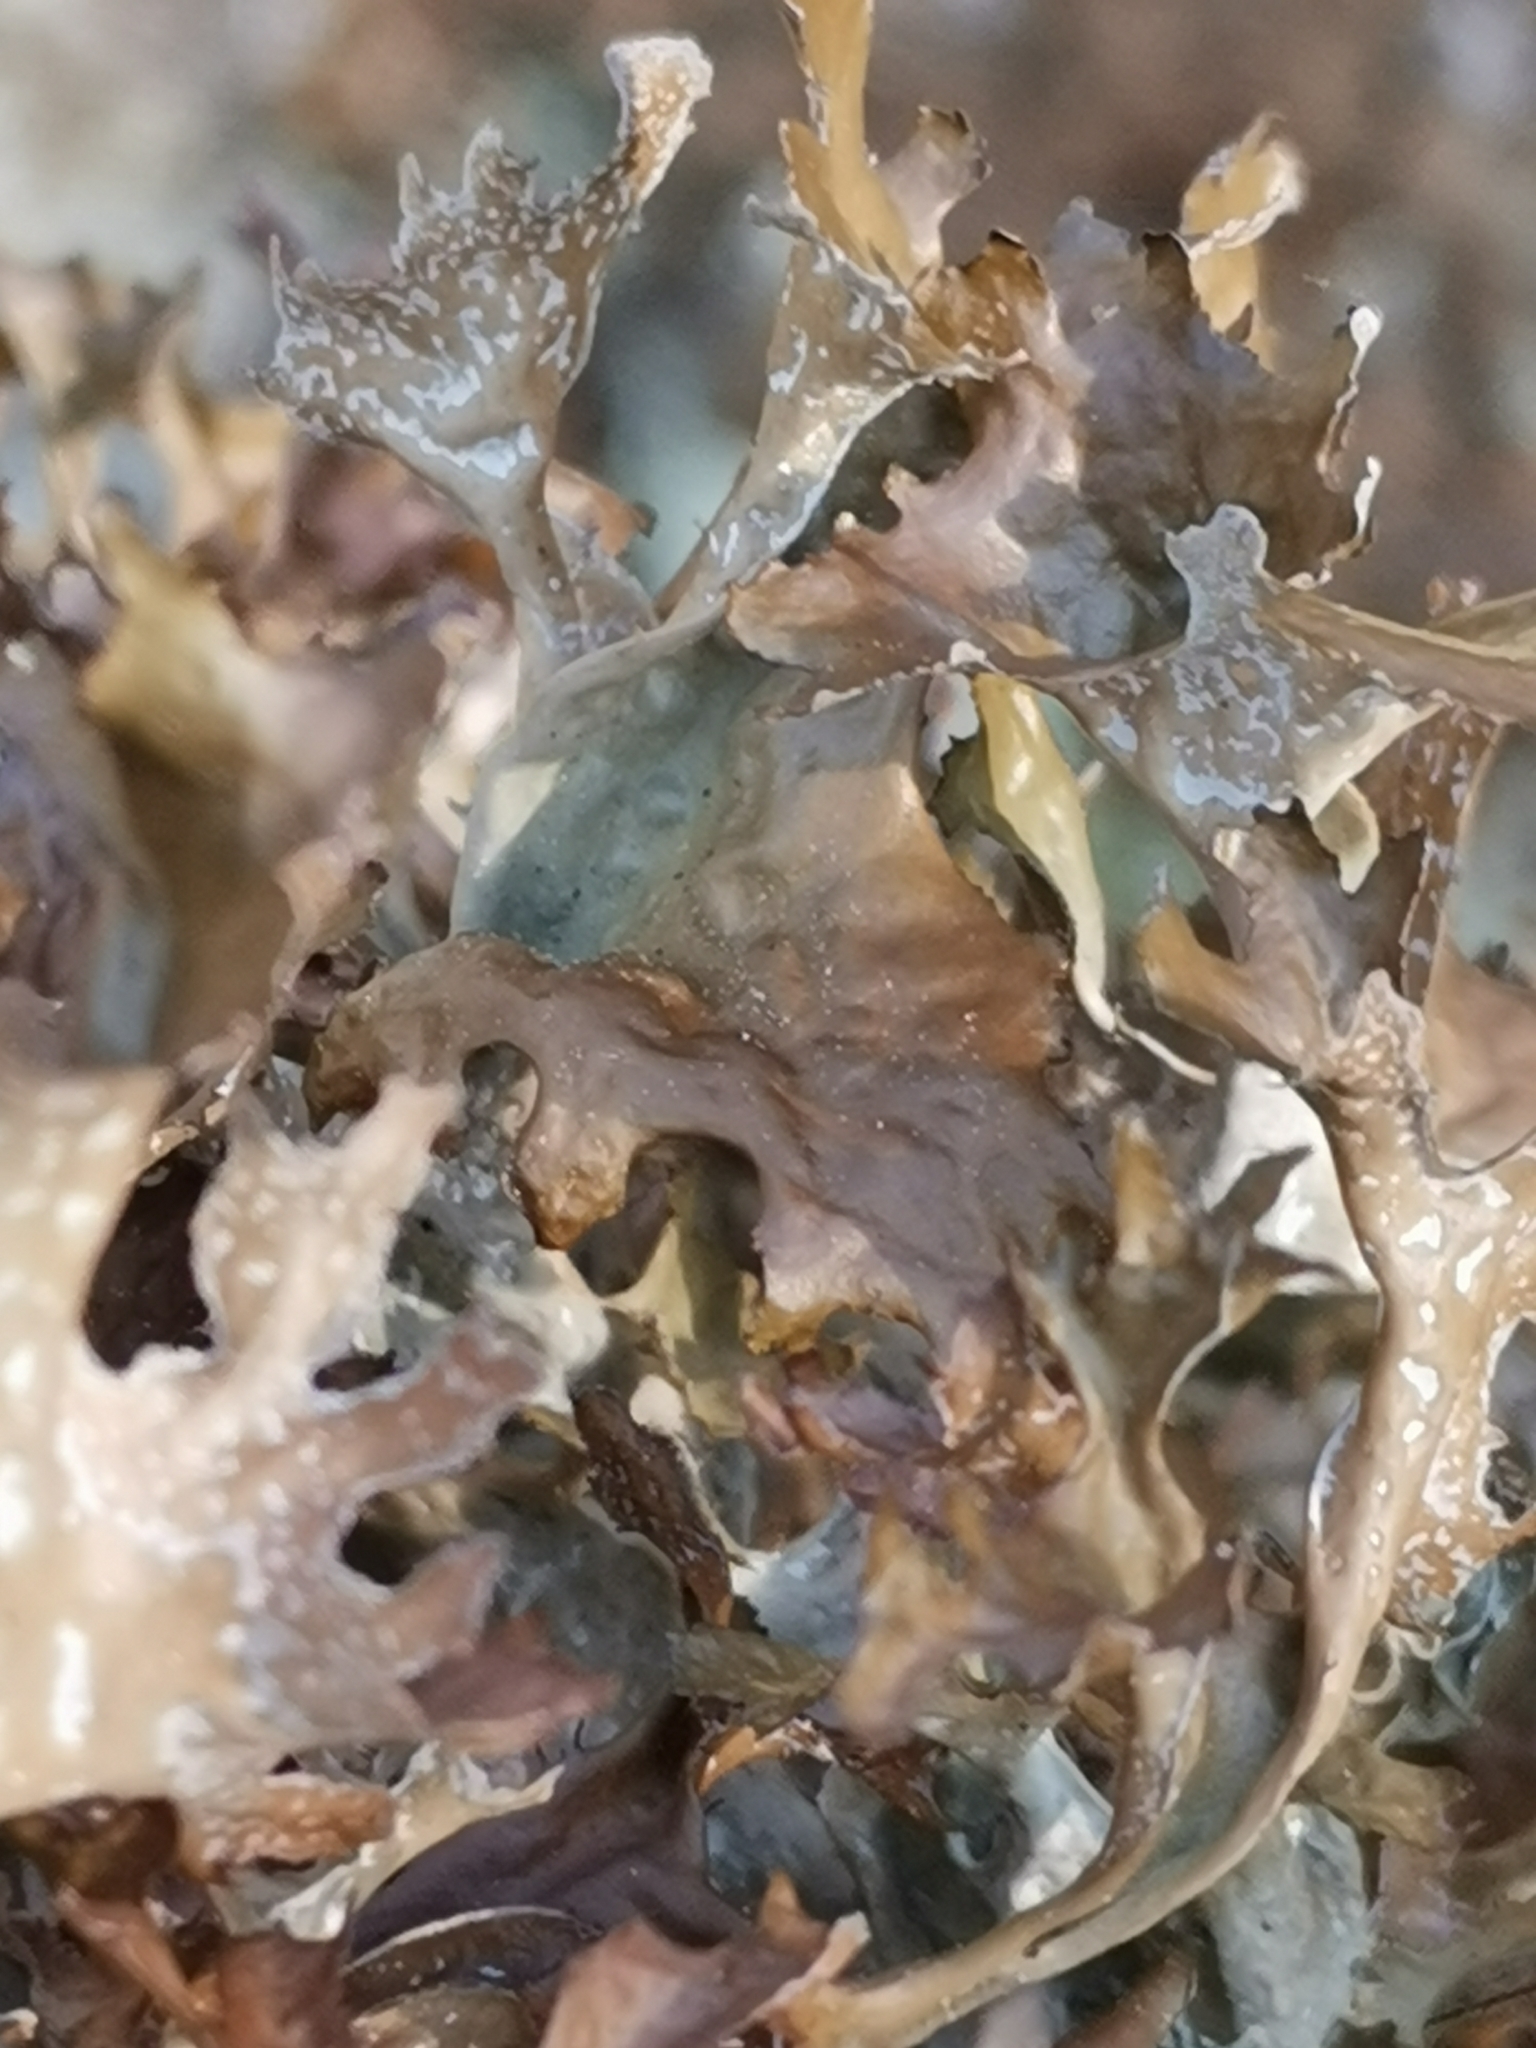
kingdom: Fungi
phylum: Ascomycota
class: Lecanoromycetes
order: Lecanorales
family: Parmeliaceae
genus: Cetraria
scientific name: Cetraria islandica
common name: Iceland lichen
